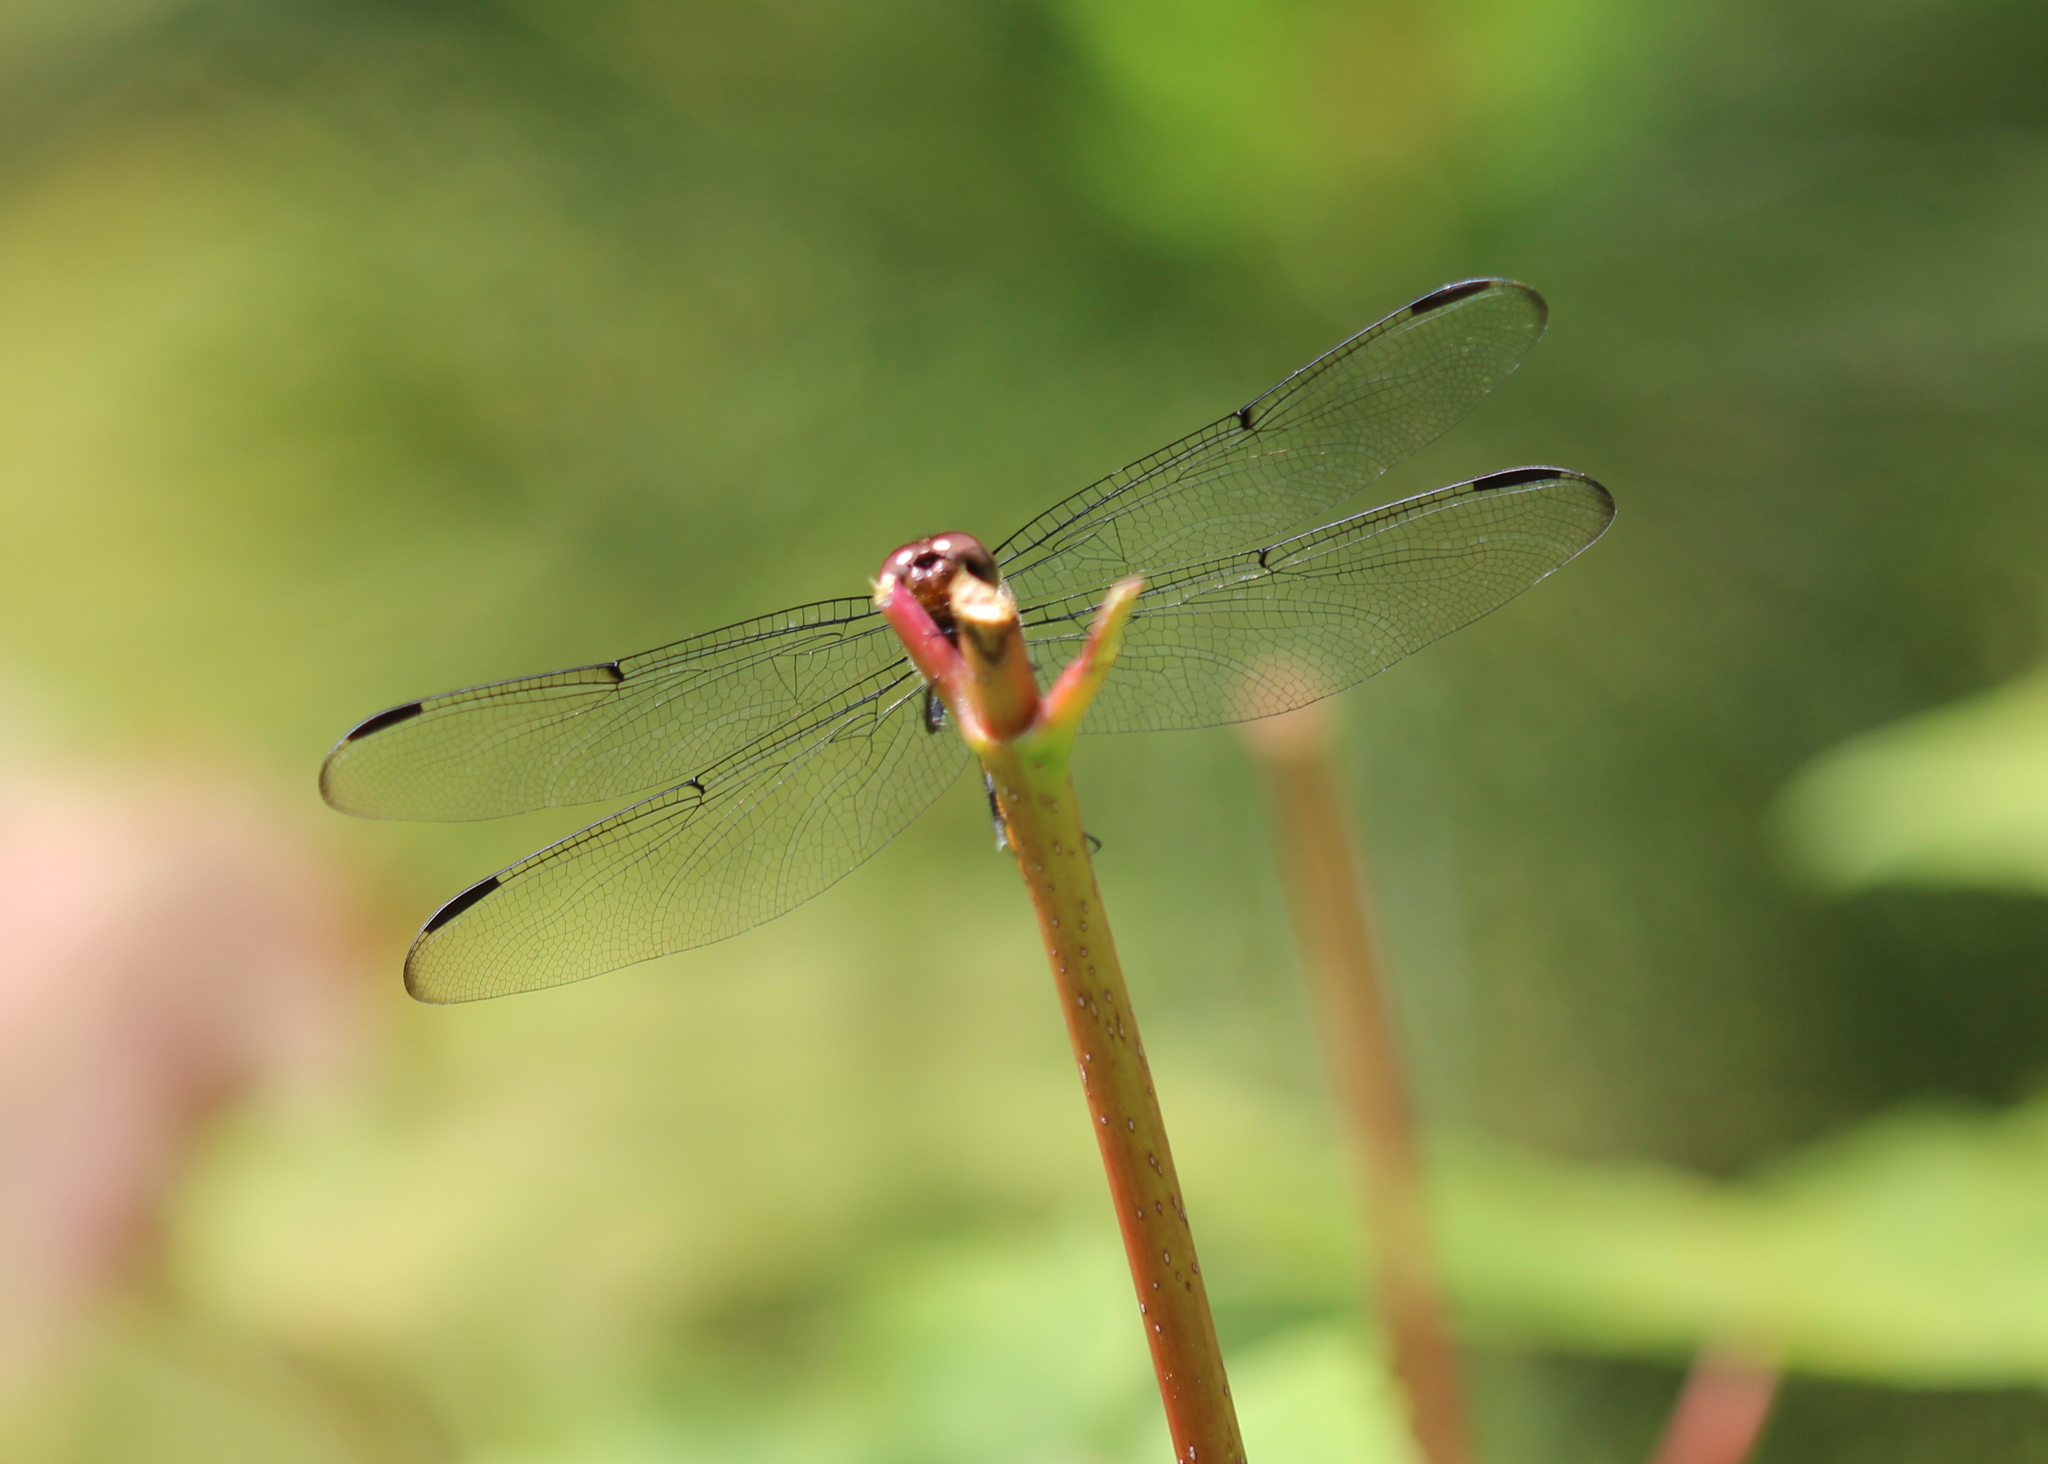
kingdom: Animalia
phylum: Arthropoda
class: Insecta
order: Odonata
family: Libellulidae
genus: Libellula
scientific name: Libellula incesta
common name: Slaty skimmer
